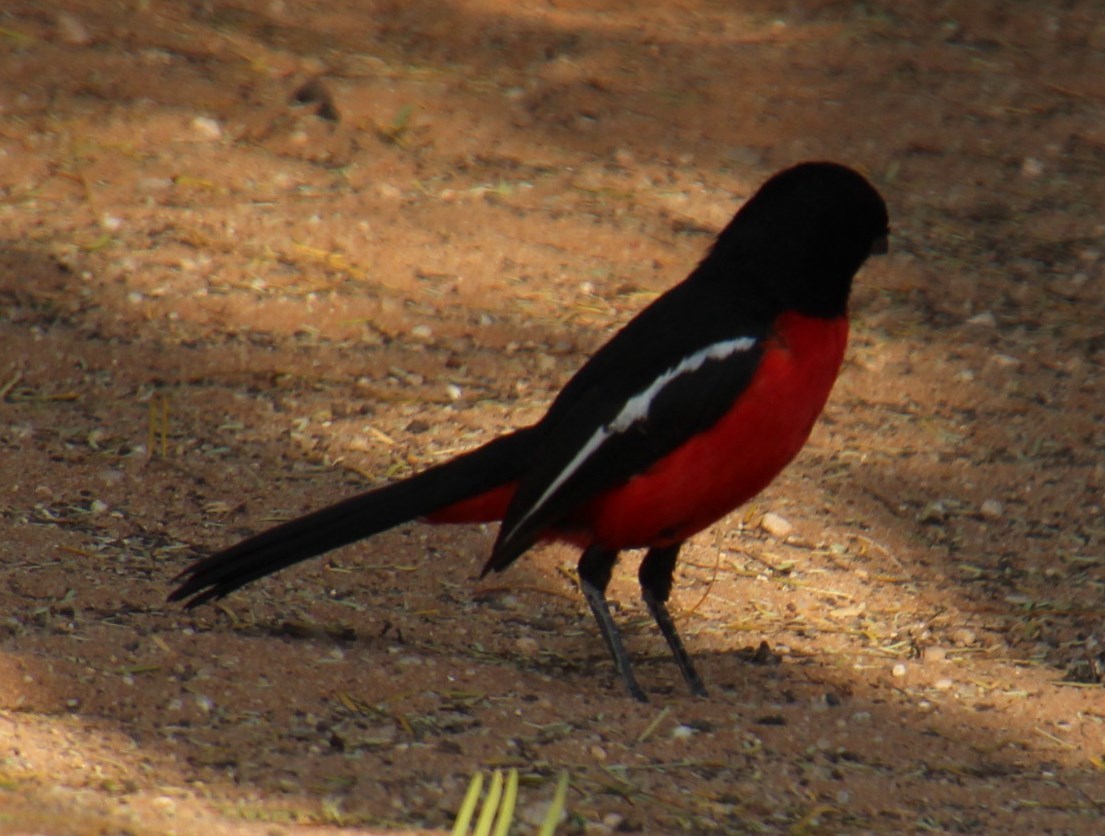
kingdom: Animalia
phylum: Chordata
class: Aves
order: Passeriformes
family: Malaconotidae
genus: Laniarius
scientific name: Laniarius atrococcineus
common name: Crimson-breasted shrike
